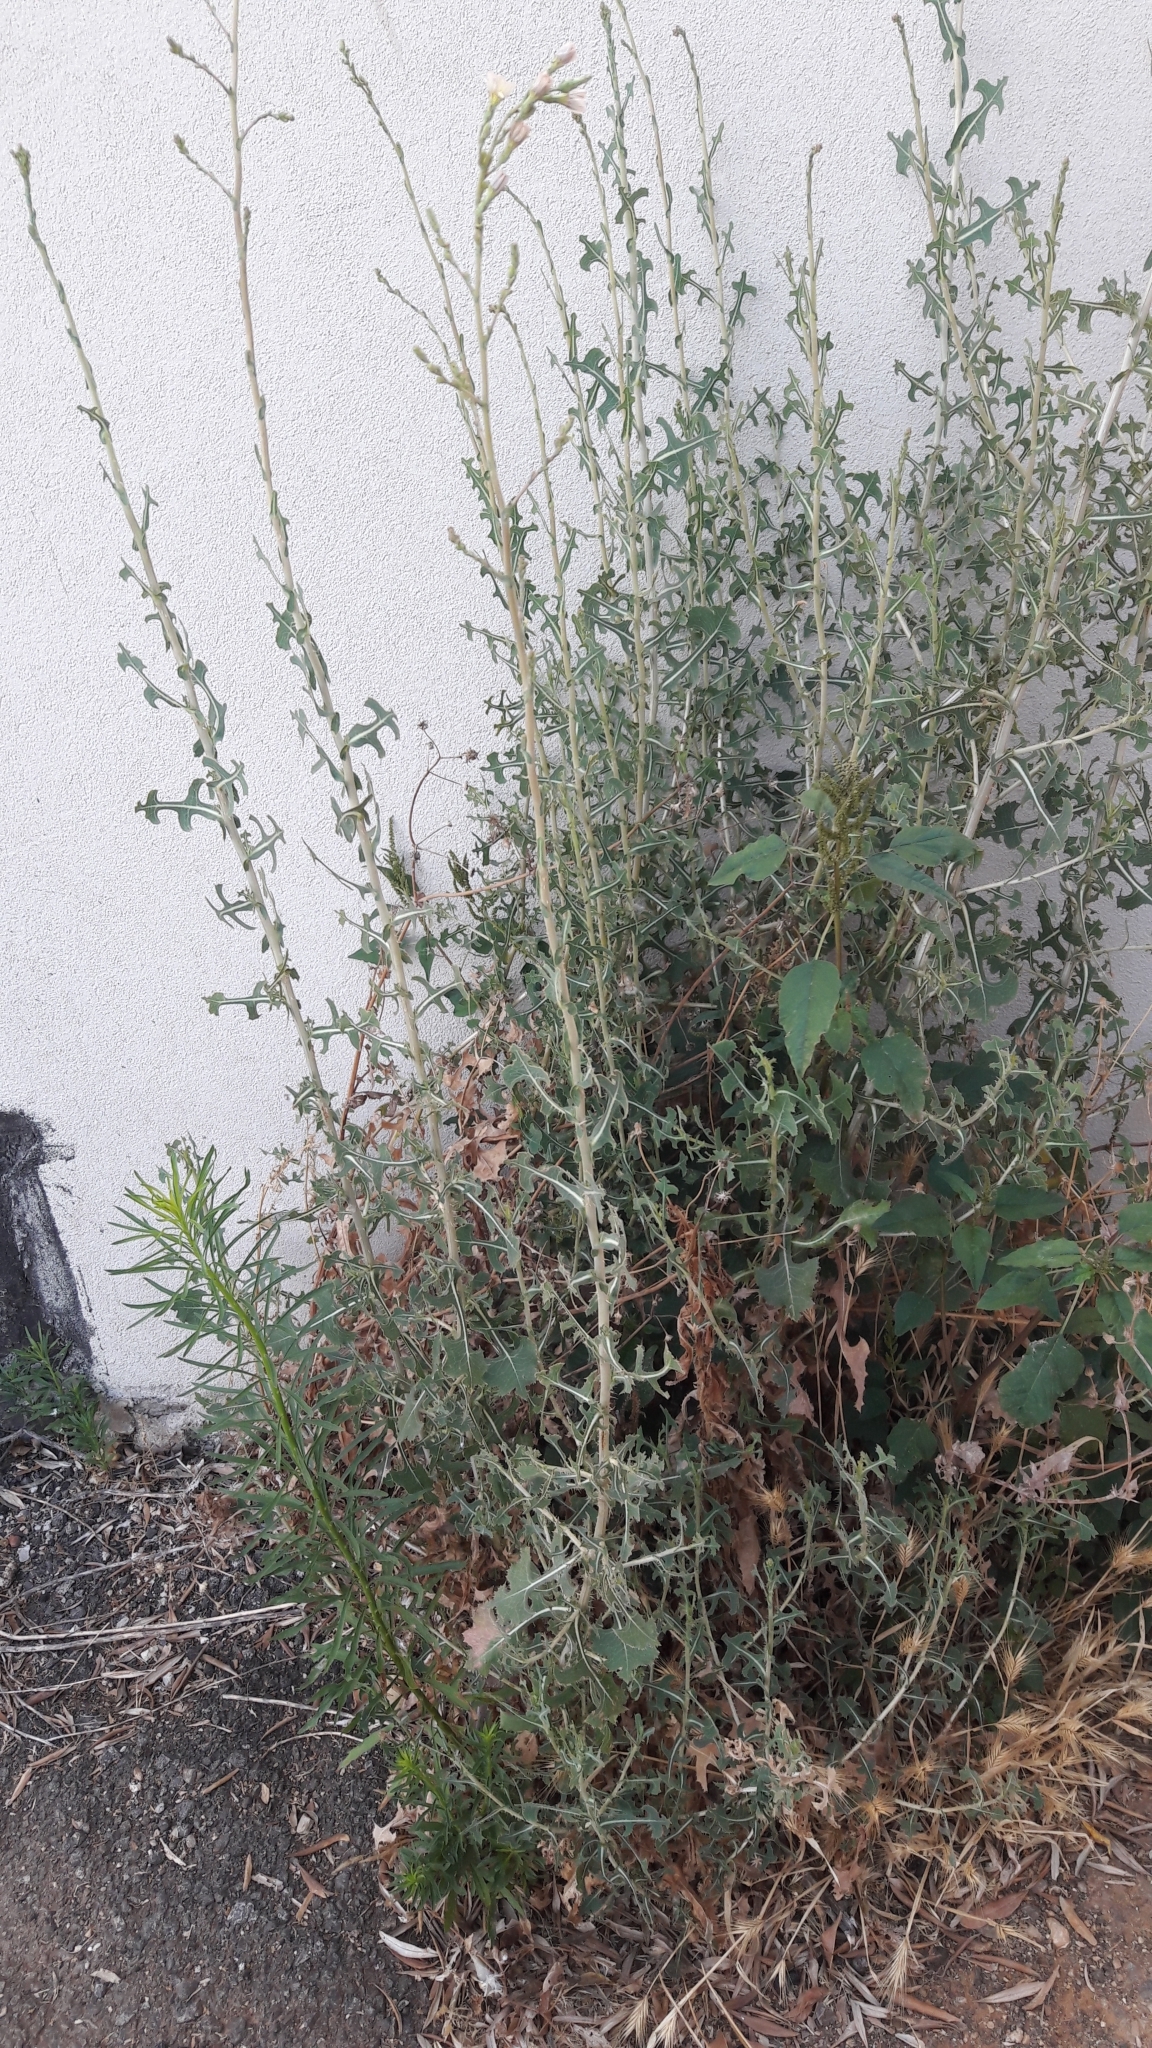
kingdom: Plantae
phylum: Tracheophyta
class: Magnoliopsida
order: Asterales
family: Asteraceae
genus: Lactuca
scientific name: Lactuca serriola
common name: Prickly lettuce
